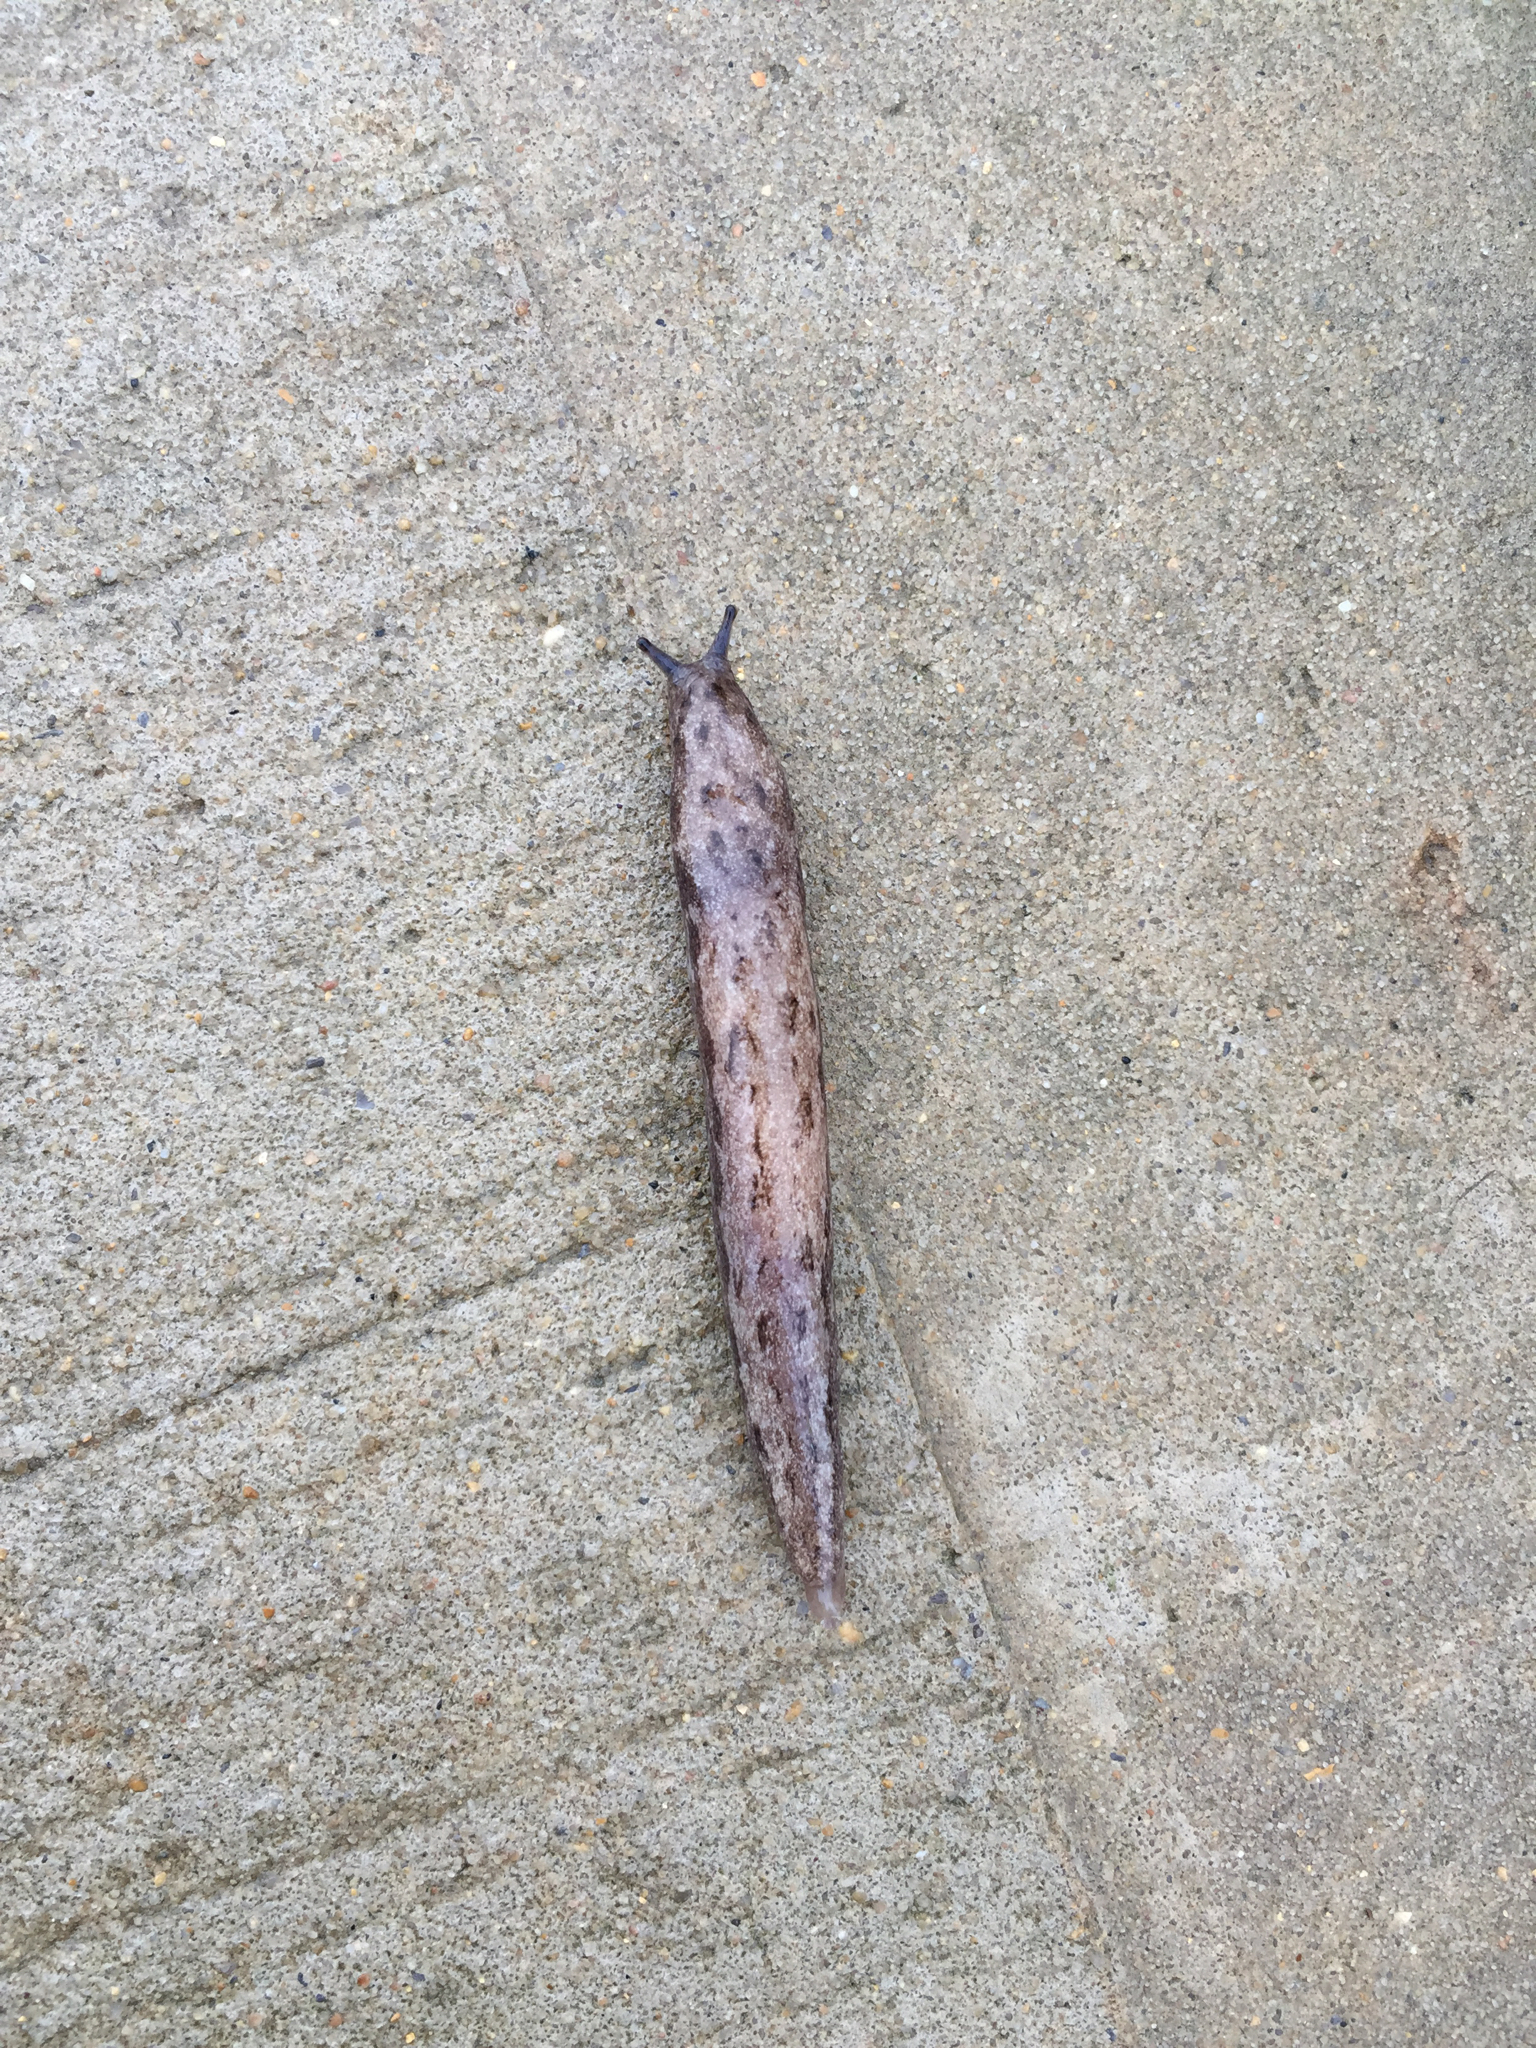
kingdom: Animalia
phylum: Mollusca
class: Gastropoda
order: Stylommatophora
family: Philomycidae
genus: Megapallifera
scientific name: Megapallifera mutabilis
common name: Changeable mantleslug
